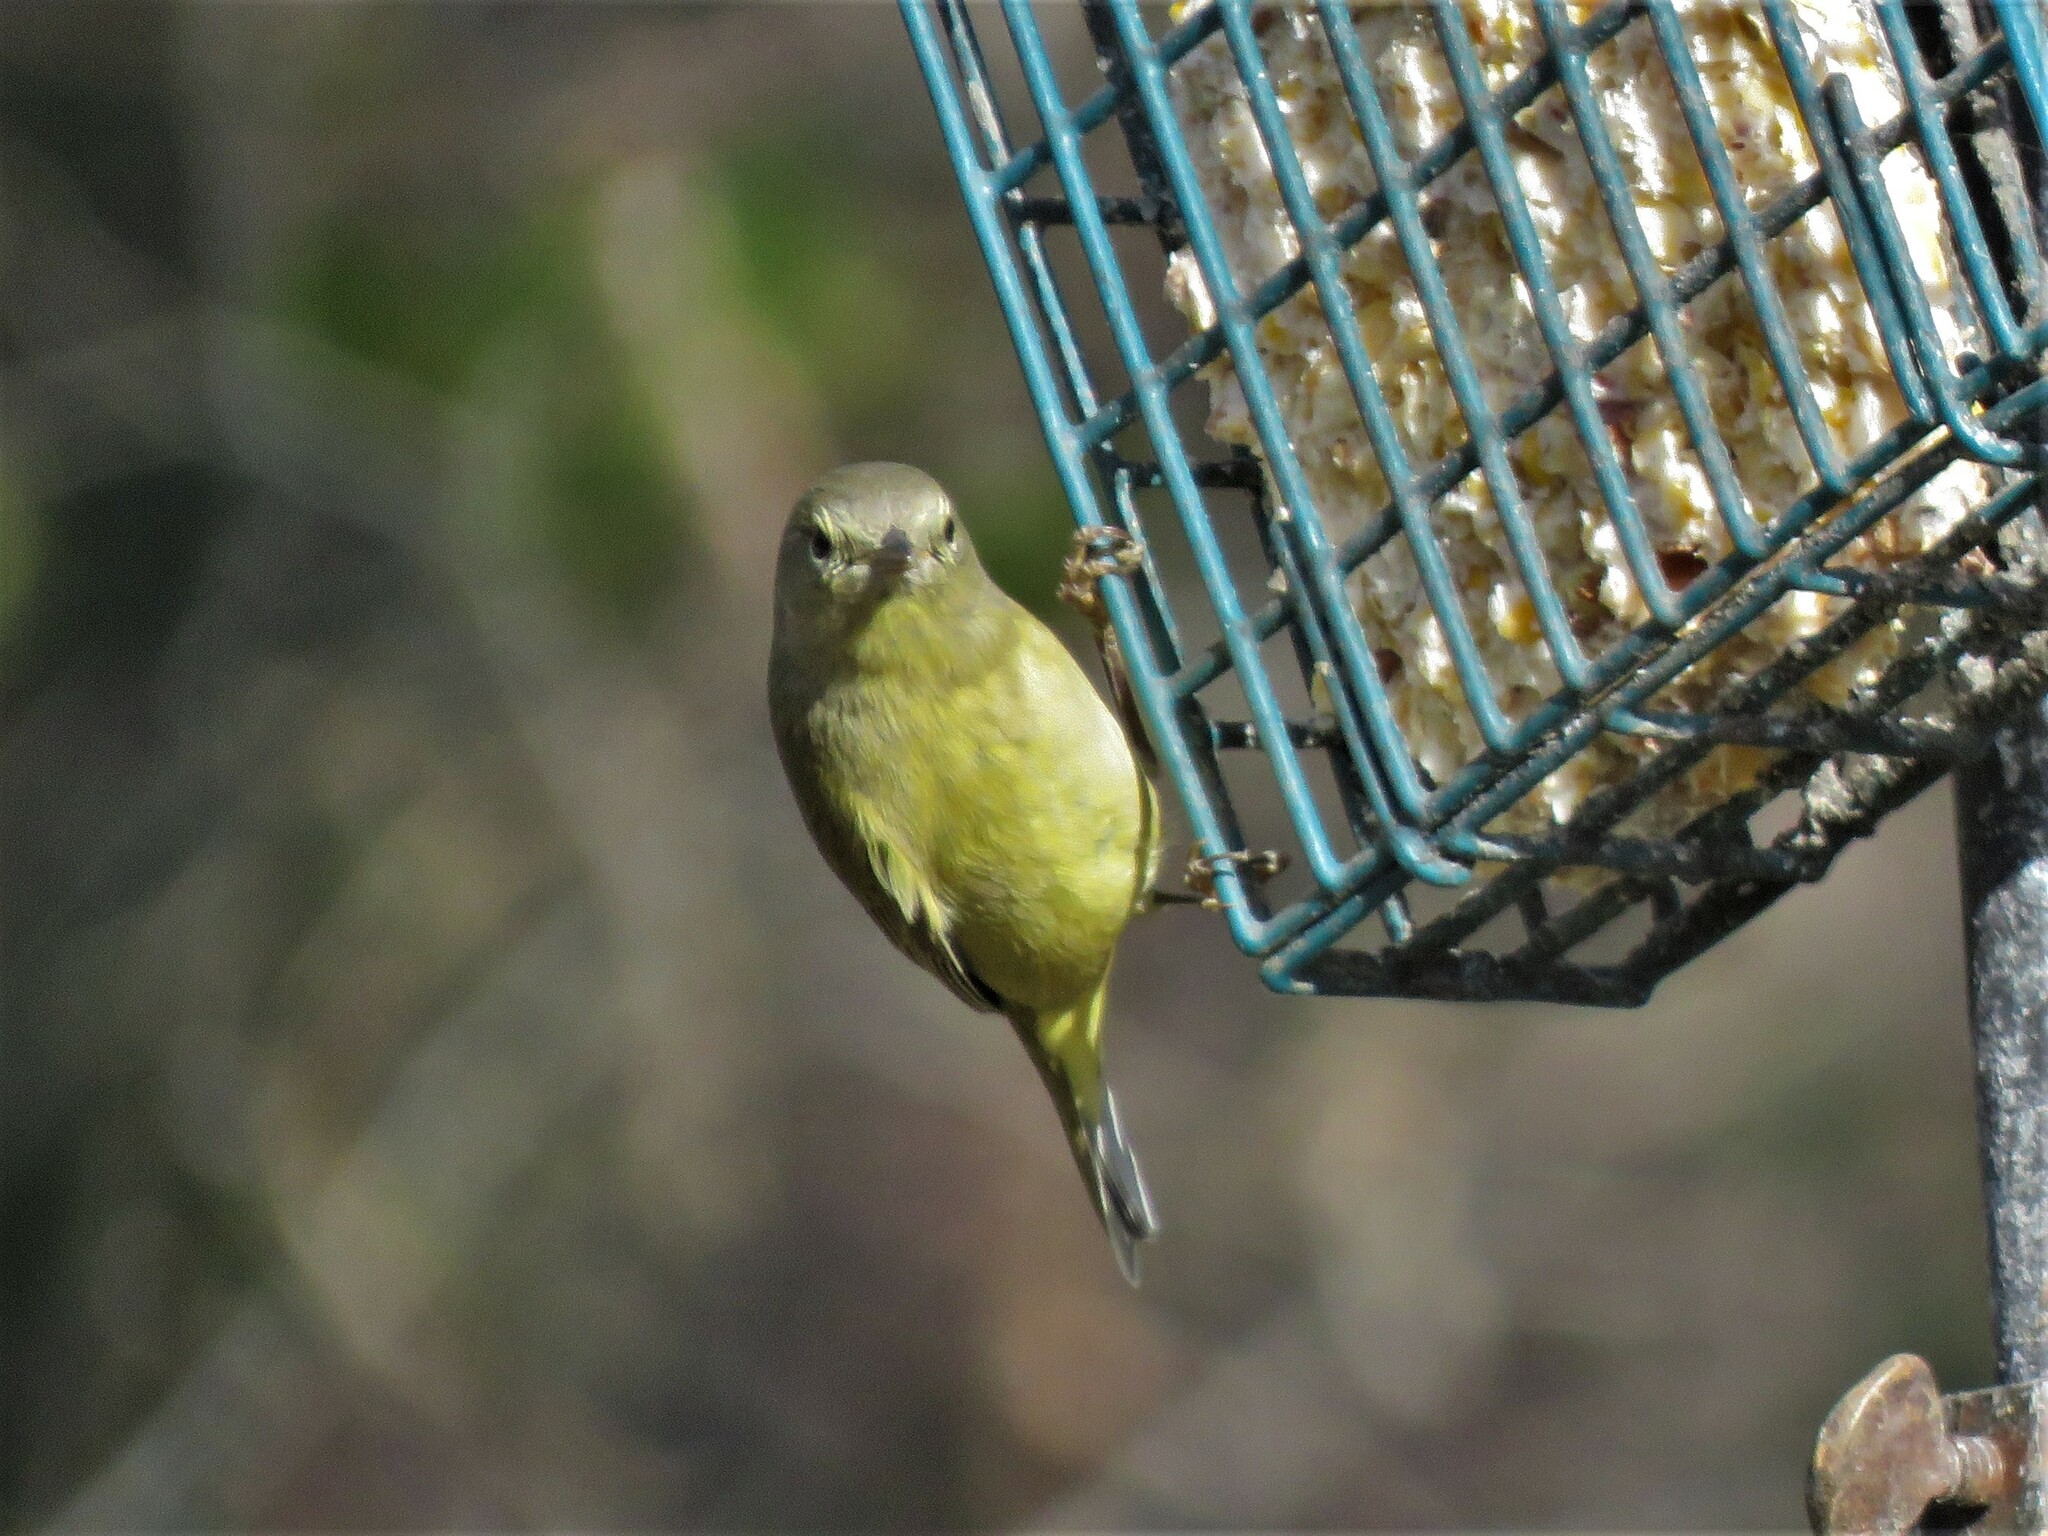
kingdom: Animalia
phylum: Chordata
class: Aves
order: Passeriformes
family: Parulidae
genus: Leiothlypis
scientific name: Leiothlypis celata
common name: Orange-crowned warbler
